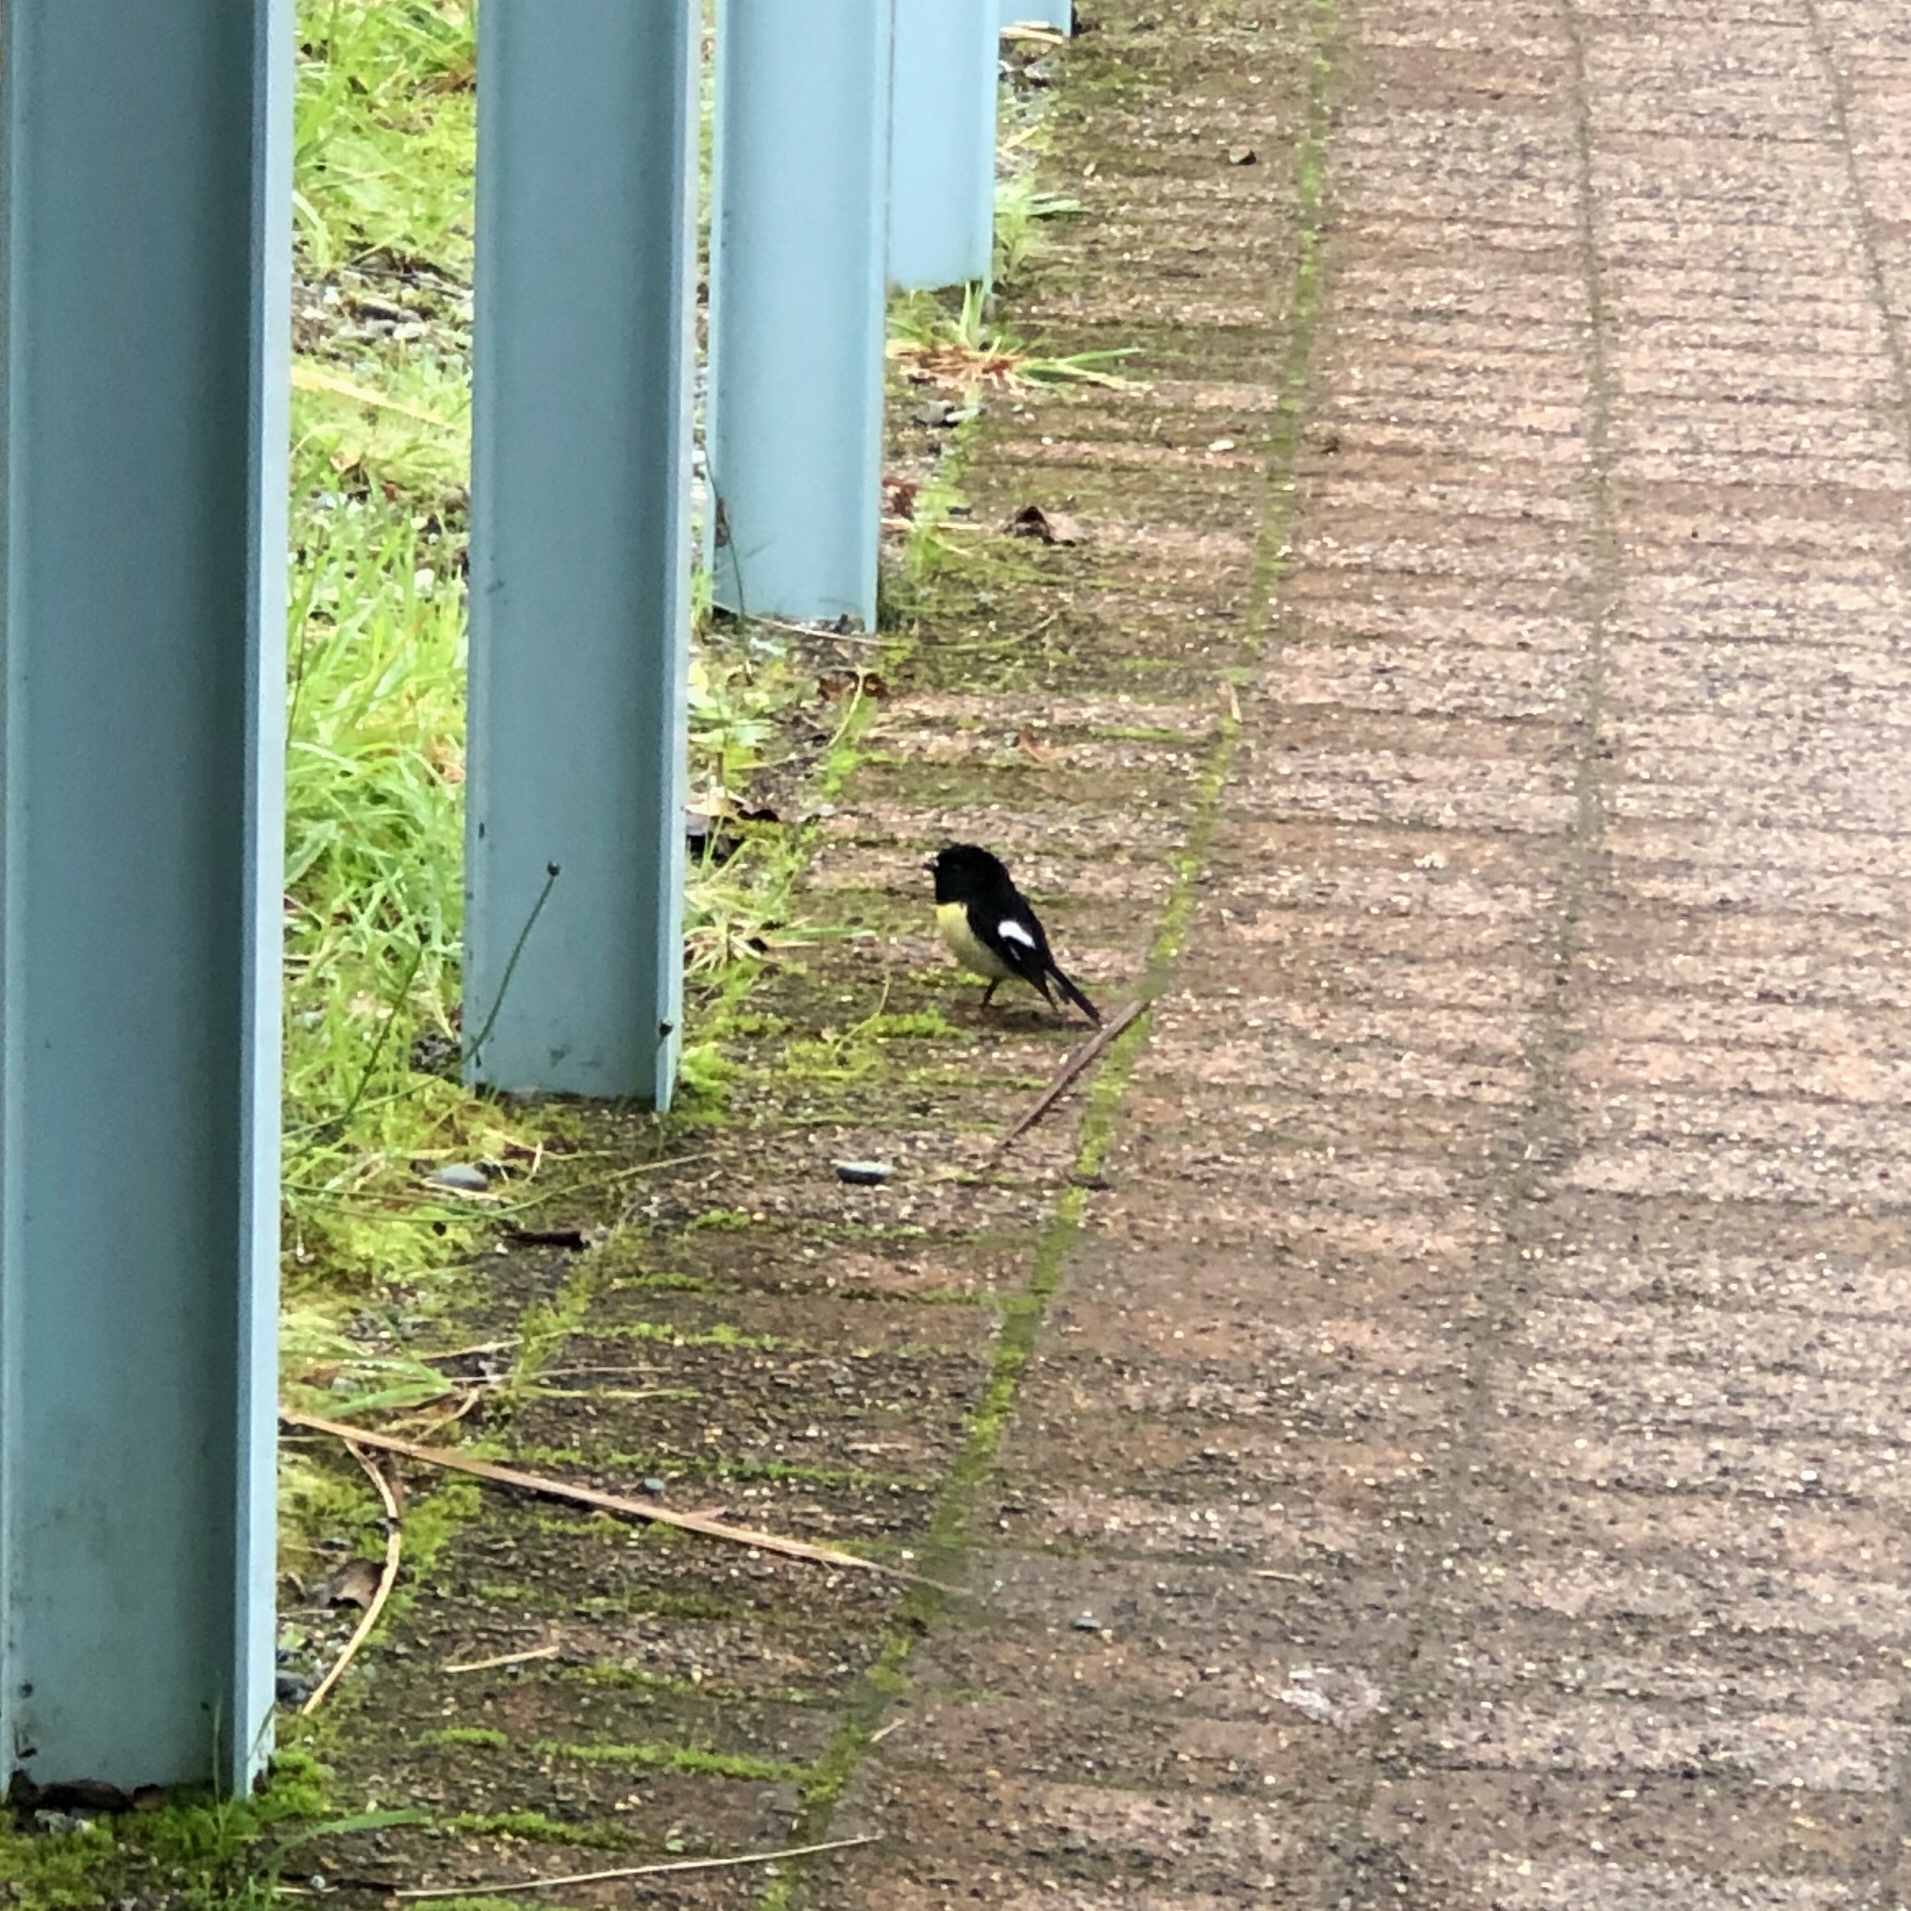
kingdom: Animalia
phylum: Chordata
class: Aves
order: Passeriformes
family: Petroicidae
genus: Petroica
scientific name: Petroica macrocephala
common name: Tomtit
